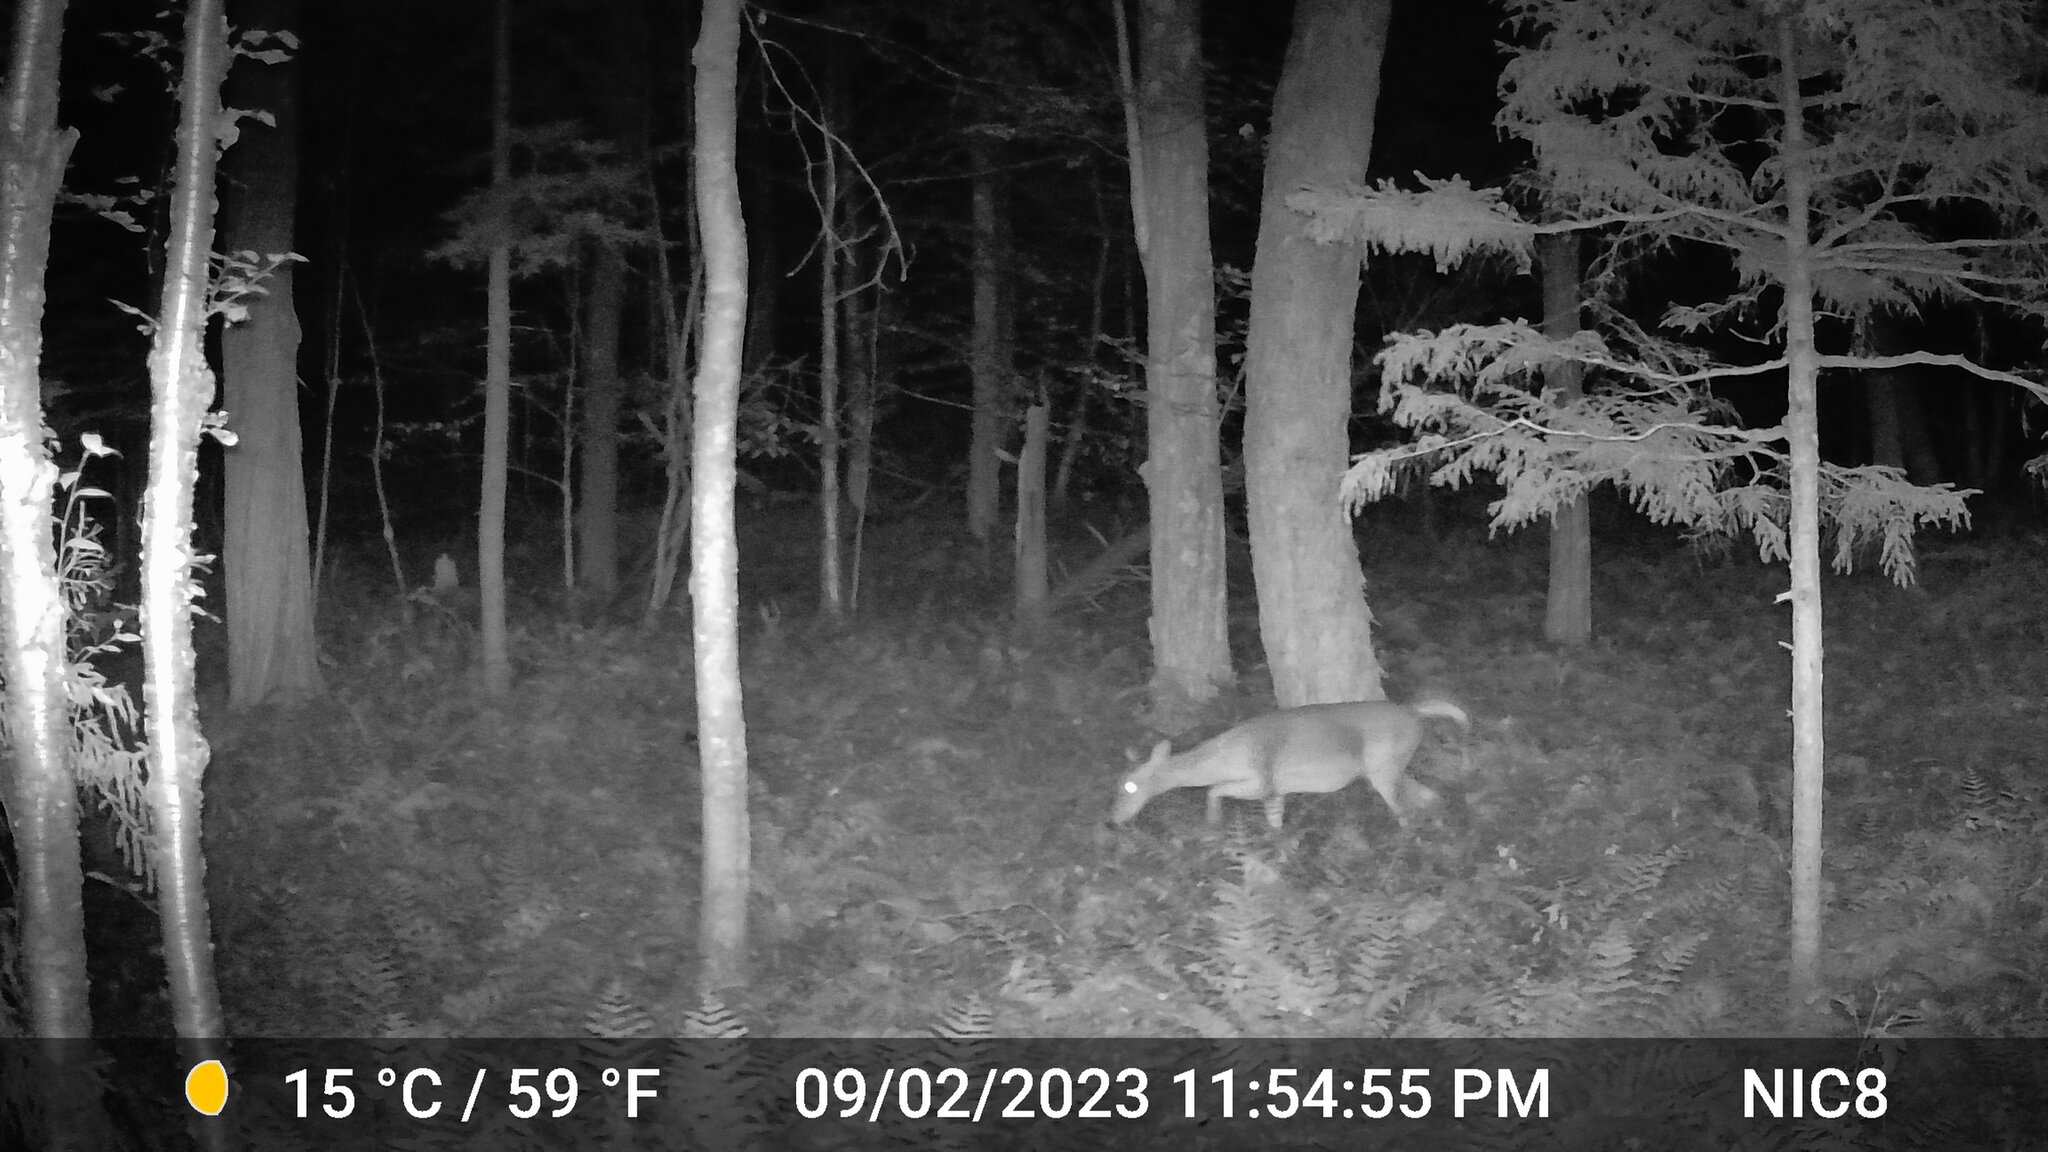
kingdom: Animalia
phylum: Chordata
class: Mammalia
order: Artiodactyla
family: Cervidae
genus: Odocoileus
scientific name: Odocoileus virginianus
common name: White-tailed deer
